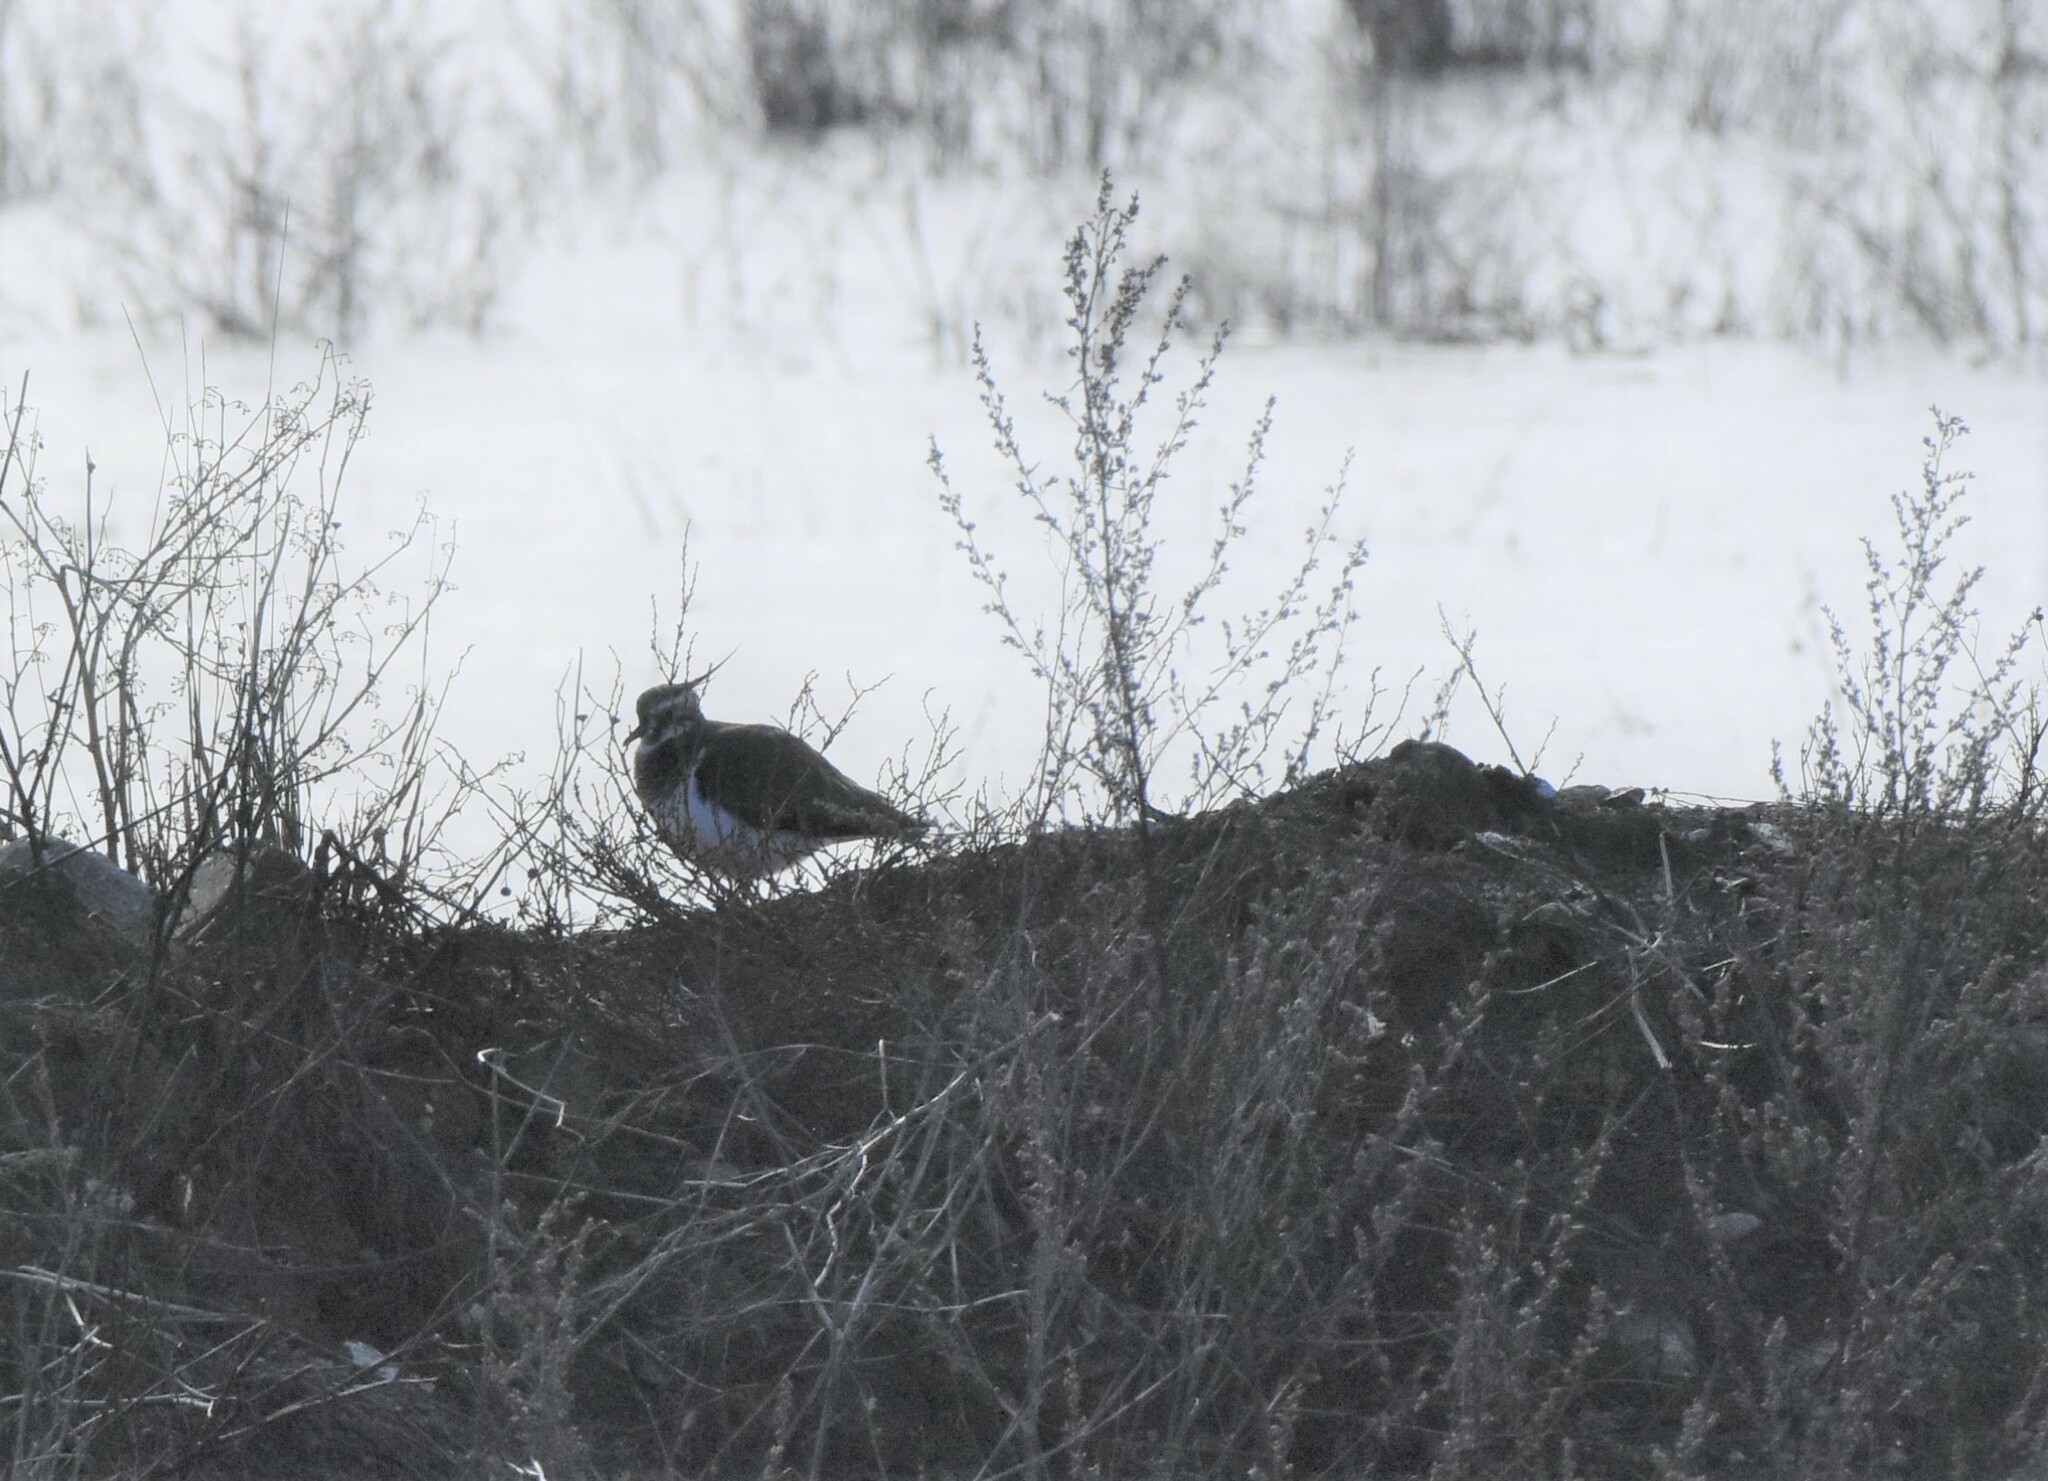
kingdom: Animalia
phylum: Chordata
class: Aves
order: Charadriiformes
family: Charadriidae
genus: Vanellus
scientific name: Vanellus vanellus
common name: Northern lapwing
